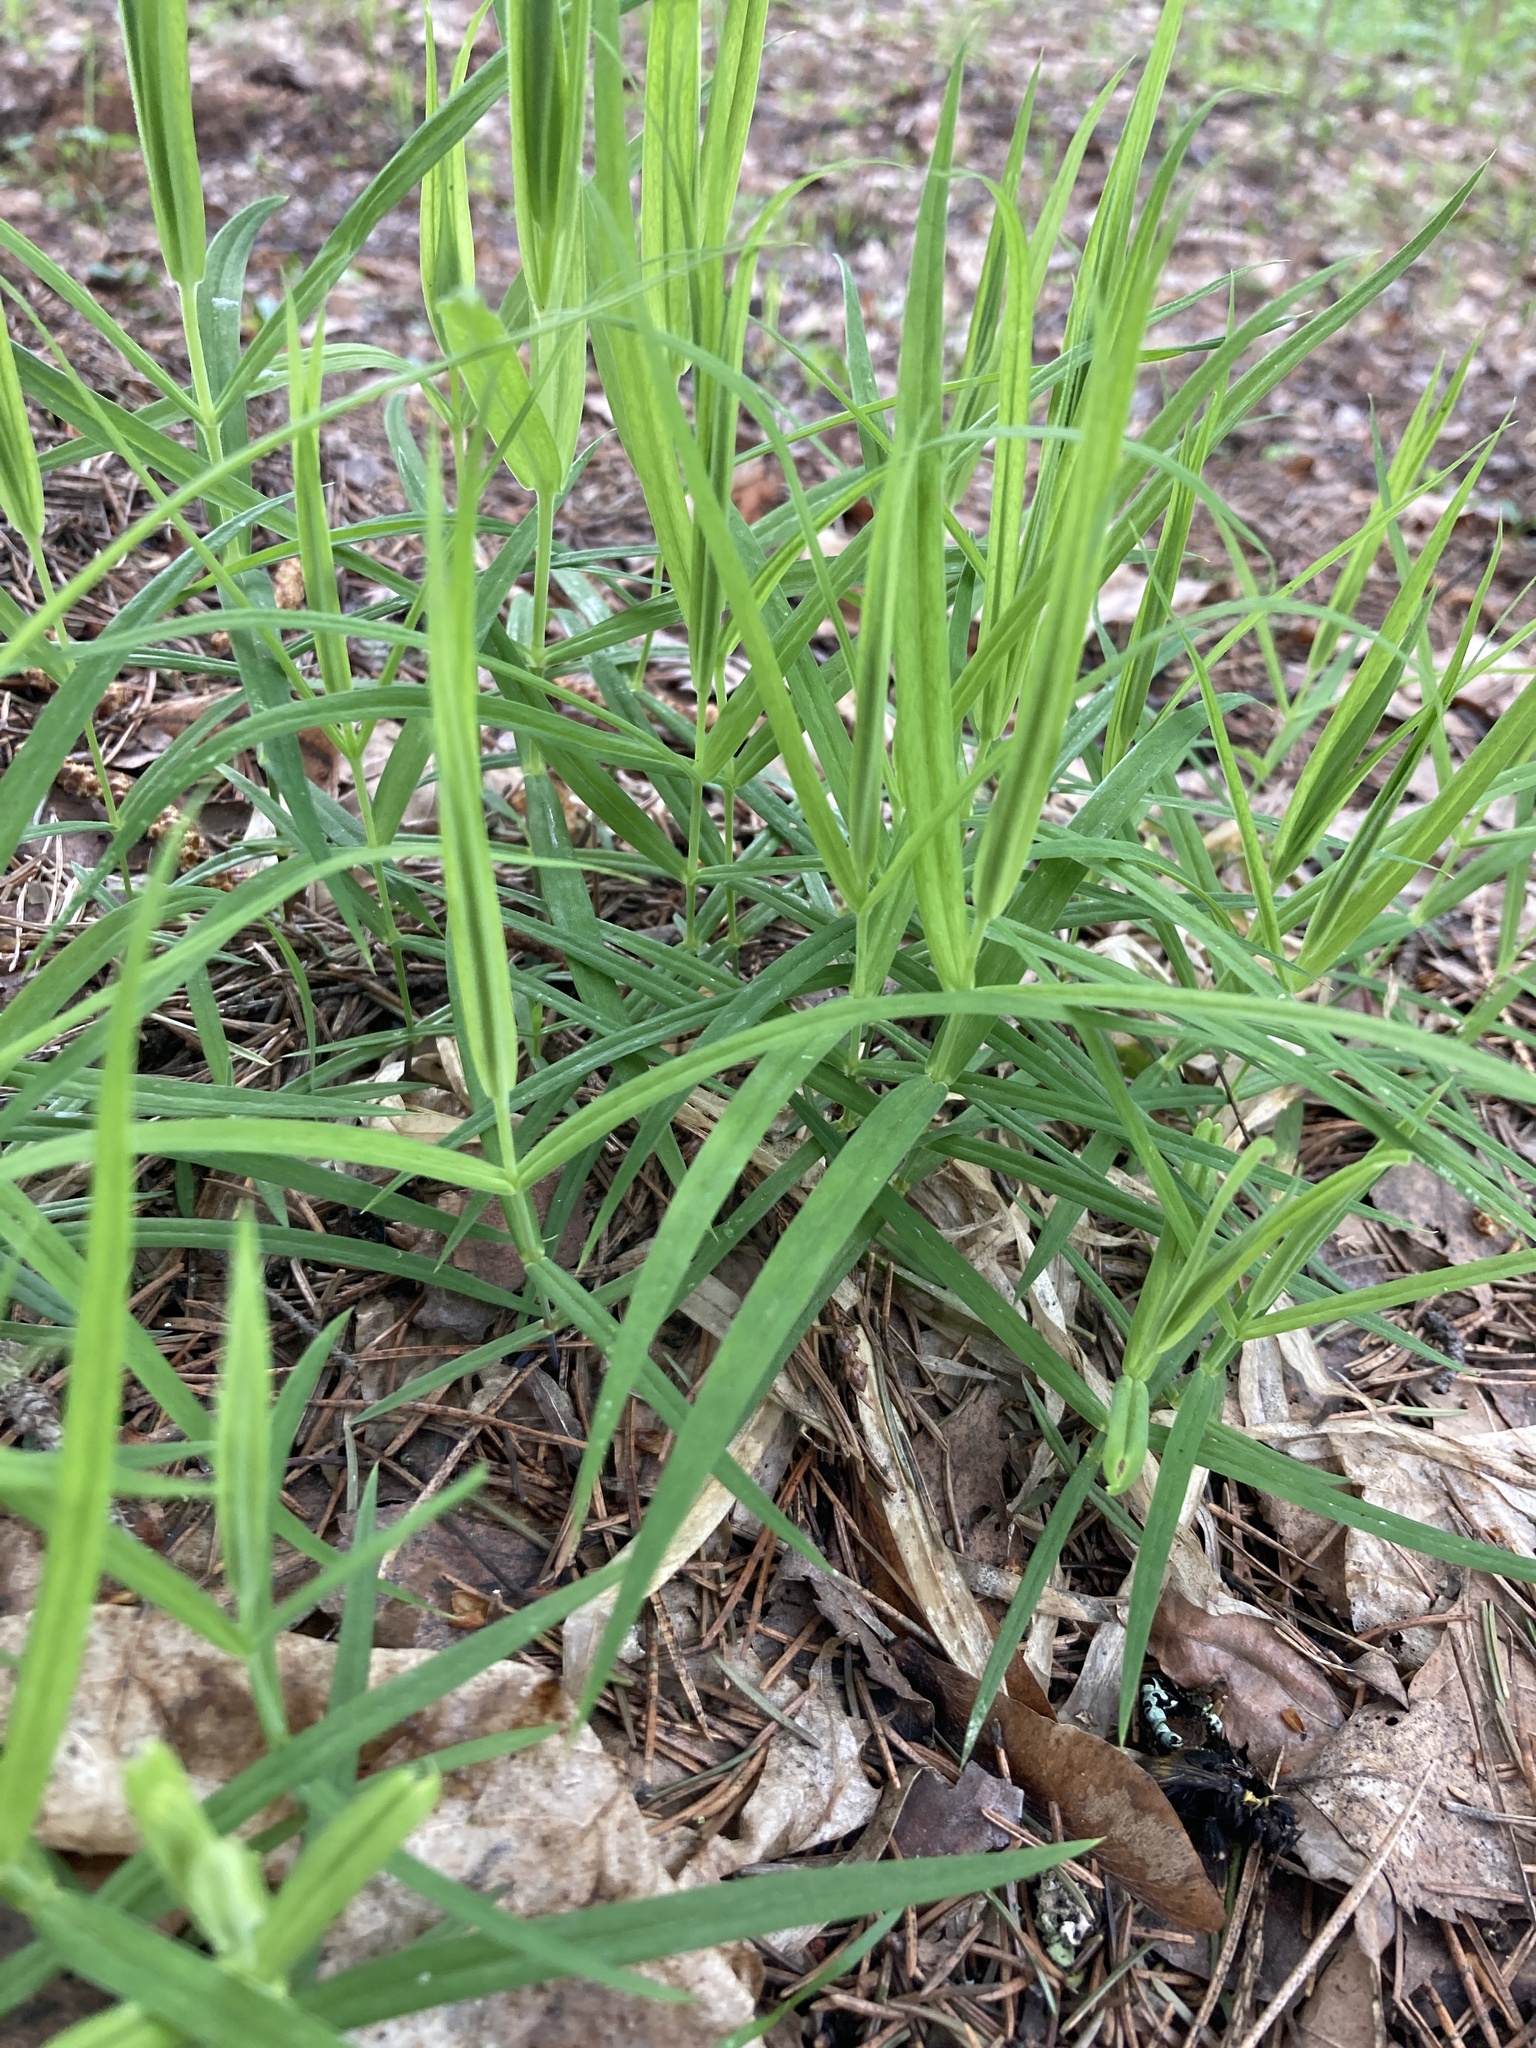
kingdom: Plantae
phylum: Tracheophyta
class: Magnoliopsida
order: Caryophyllales
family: Caryophyllaceae
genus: Rabelera
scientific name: Rabelera holostea
